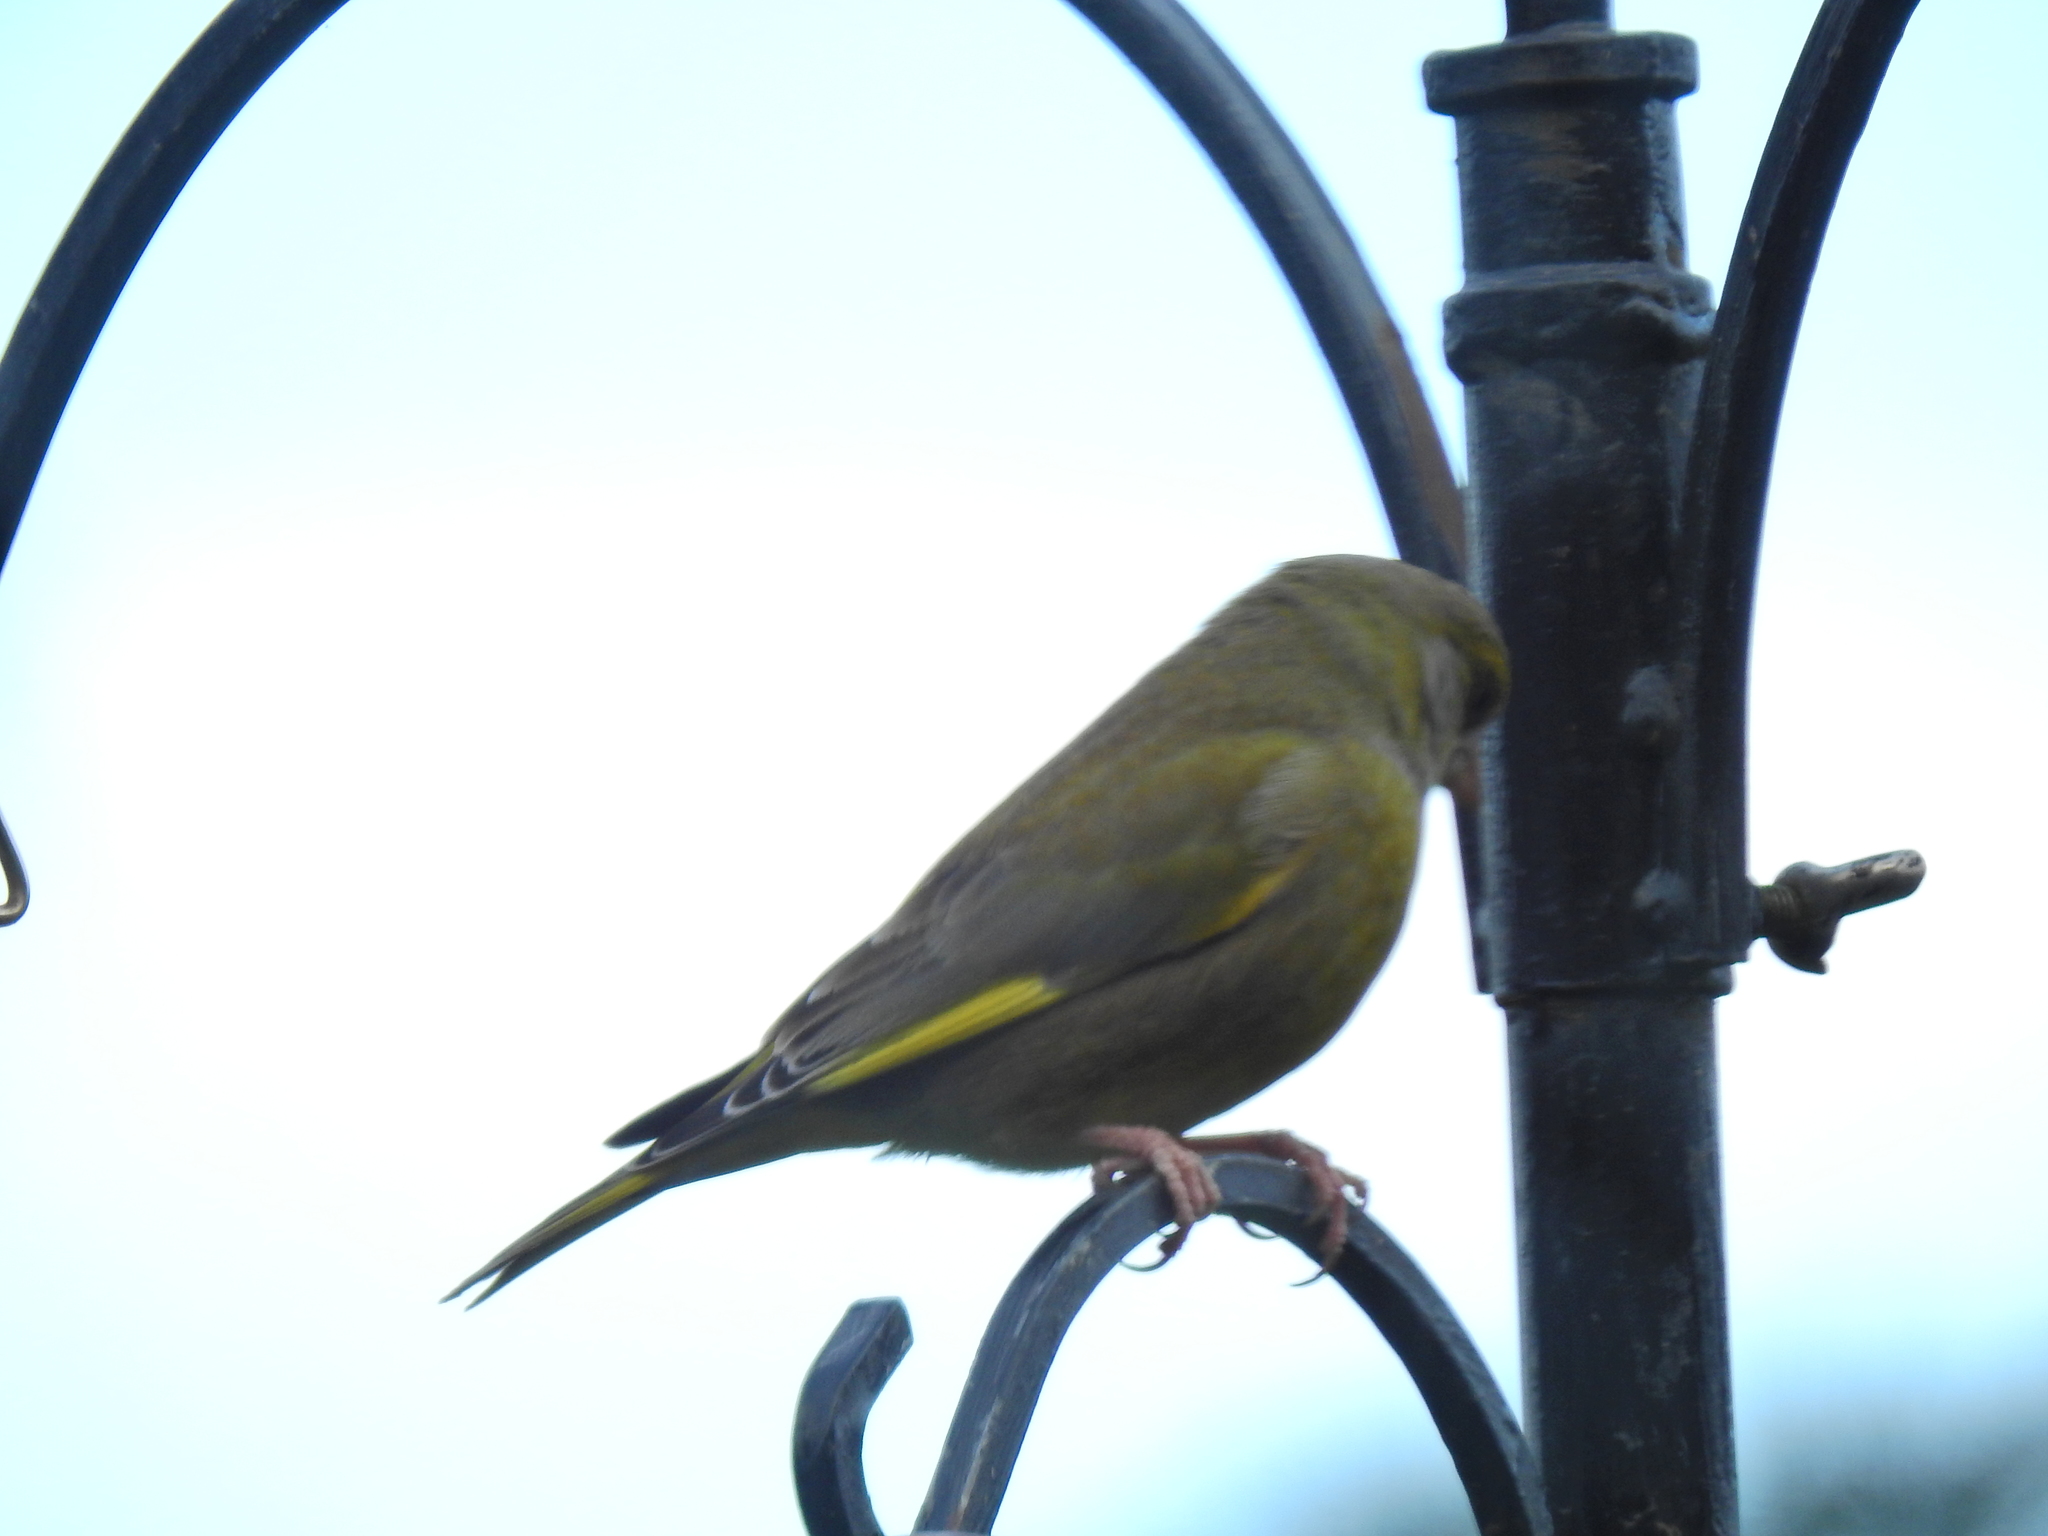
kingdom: Plantae
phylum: Tracheophyta
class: Liliopsida
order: Poales
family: Poaceae
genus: Chloris
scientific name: Chloris chloris
